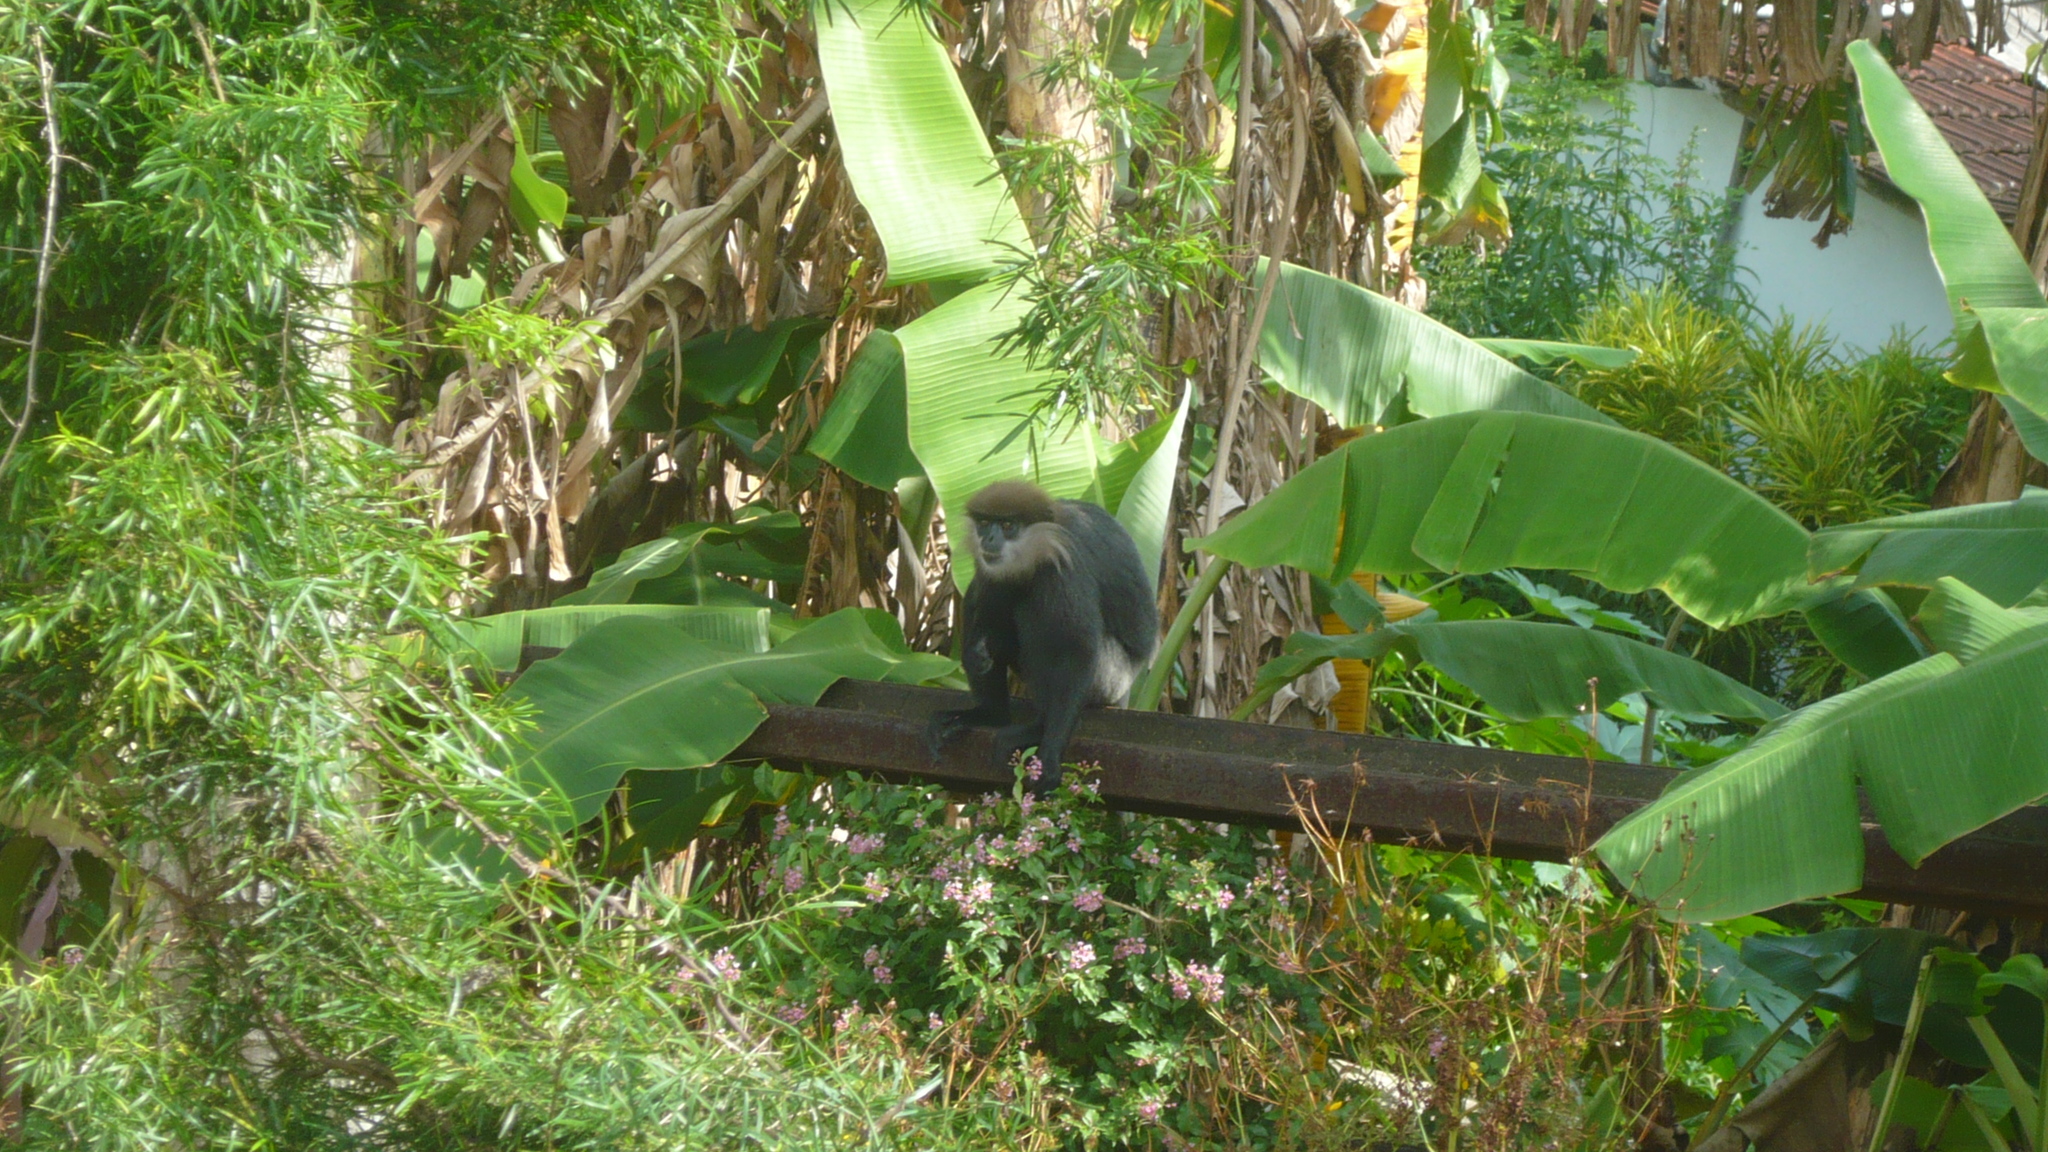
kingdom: Animalia
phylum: Chordata
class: Mammalia
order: Primates
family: Cercopithecidae
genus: Semnopithecus
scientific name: Semnopithecus vetulus
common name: Purple-faced langur
